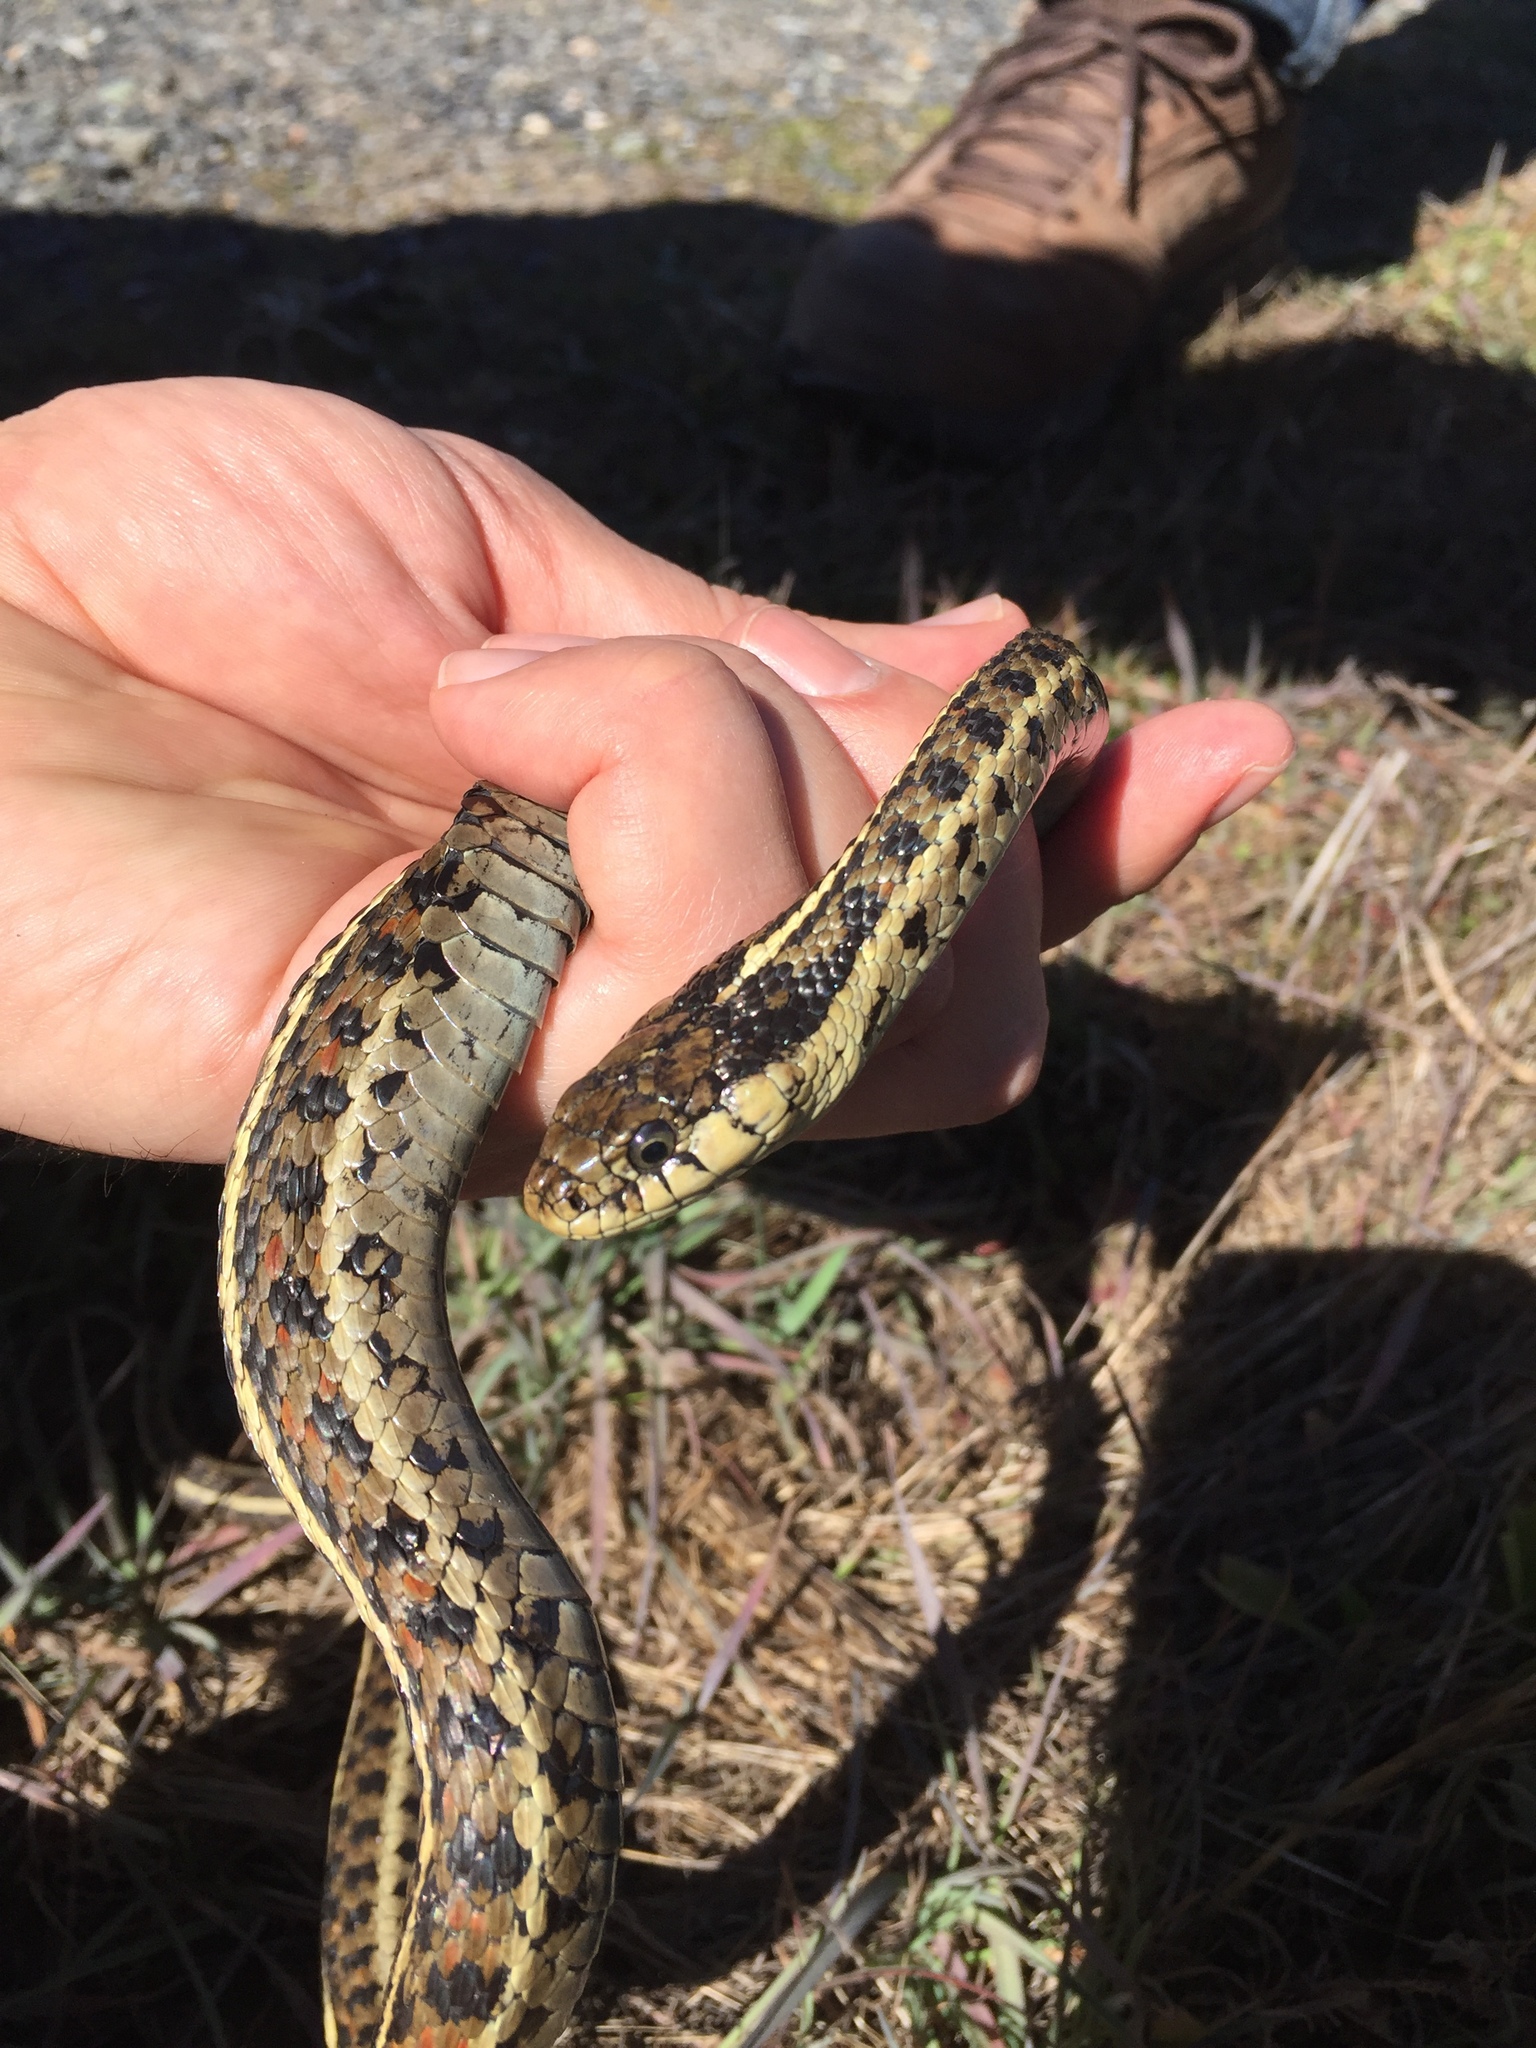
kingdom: Animalia
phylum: Chordata
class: Squamata
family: Colubridae
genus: Thamnophis
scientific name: Thamnophis elegans
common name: Western terrestrial garter snake
